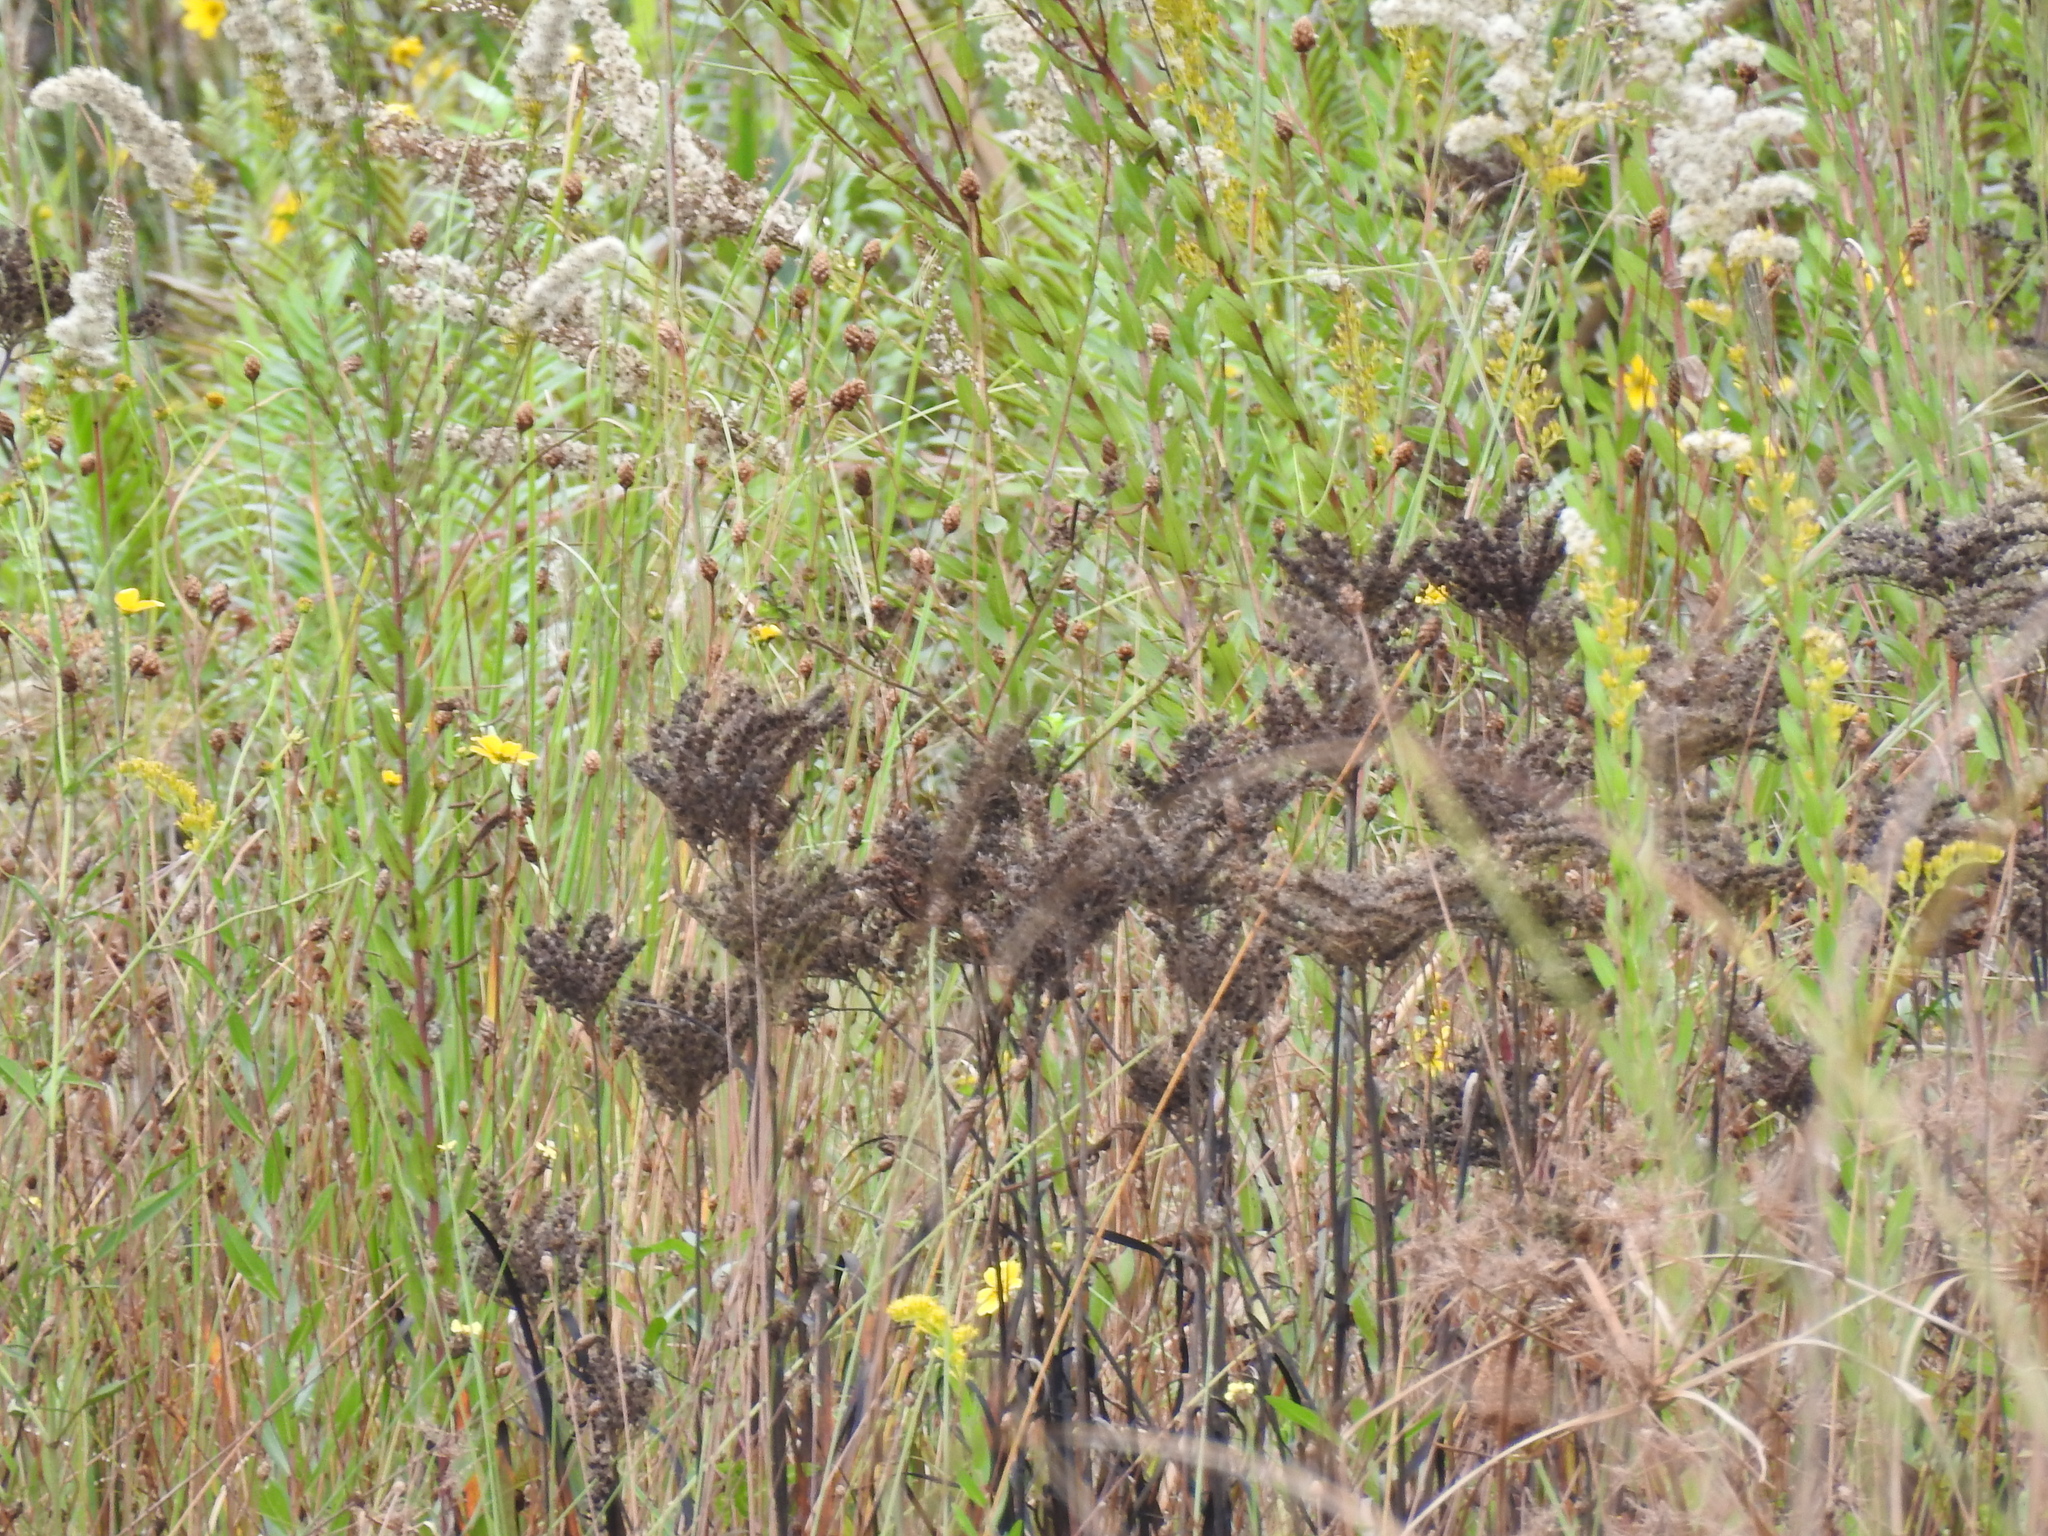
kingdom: Plantae
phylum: Tracheophyta
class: Liliopsida
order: Commelinales
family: Haemodoraceae
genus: Lachnanthes
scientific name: Lachnanthes caroliana
